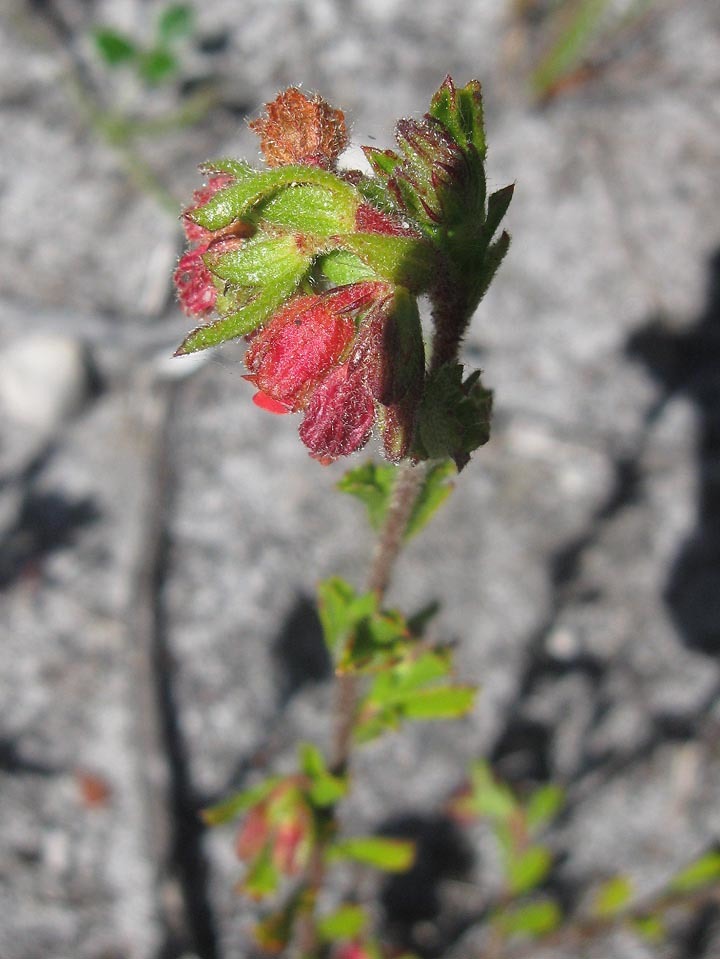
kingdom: Plantae
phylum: Tracheophyta
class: Magnoliopsida
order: Malvales
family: Malvaceae
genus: Hermannia
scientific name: Hermannia rudis
